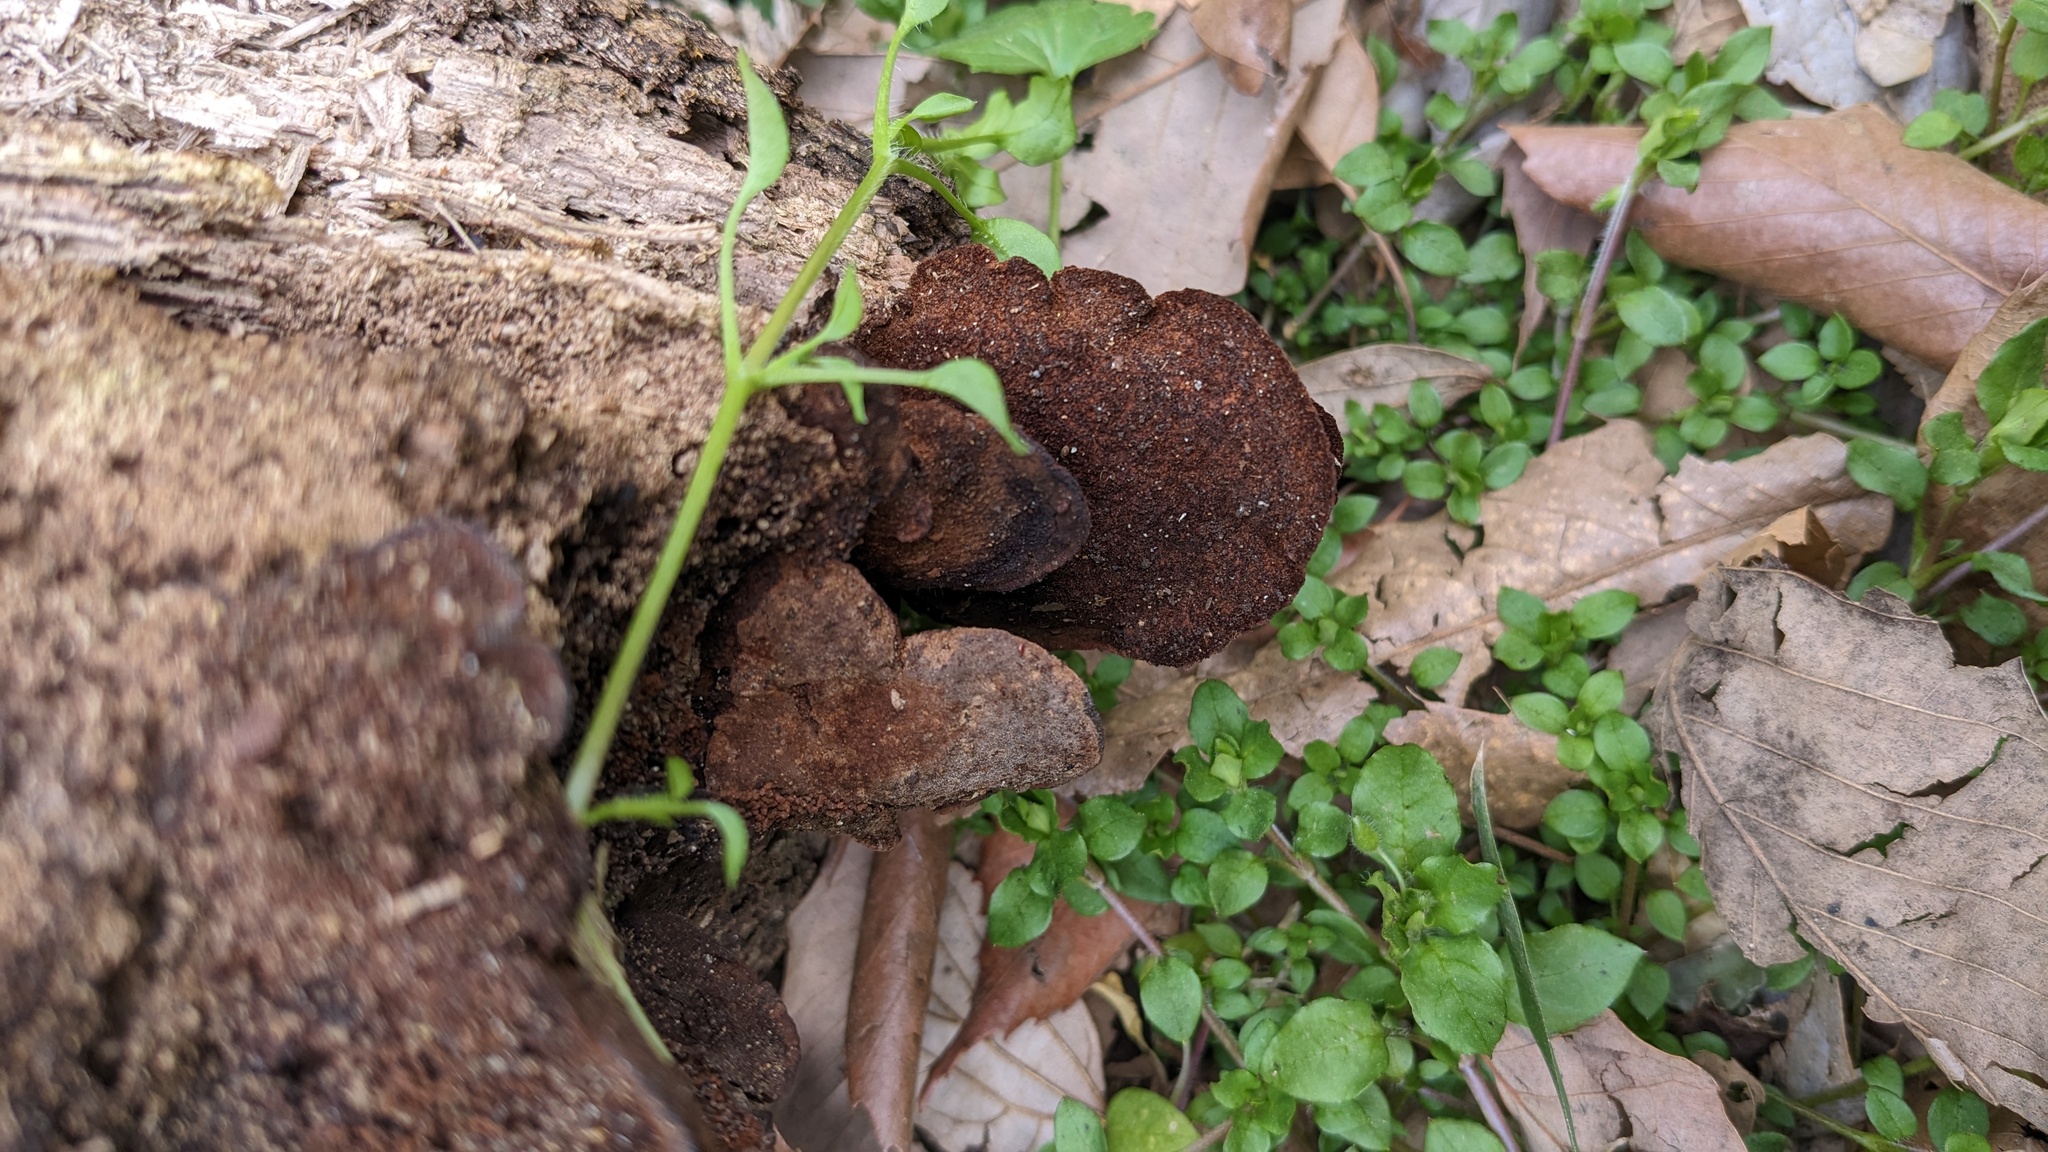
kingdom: Fungi
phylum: Basidiomycota
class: Agaricomycetes
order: Hymenochaetales
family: Hymenochaetaceae
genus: Phellinus
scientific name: Phellinus gilvus
